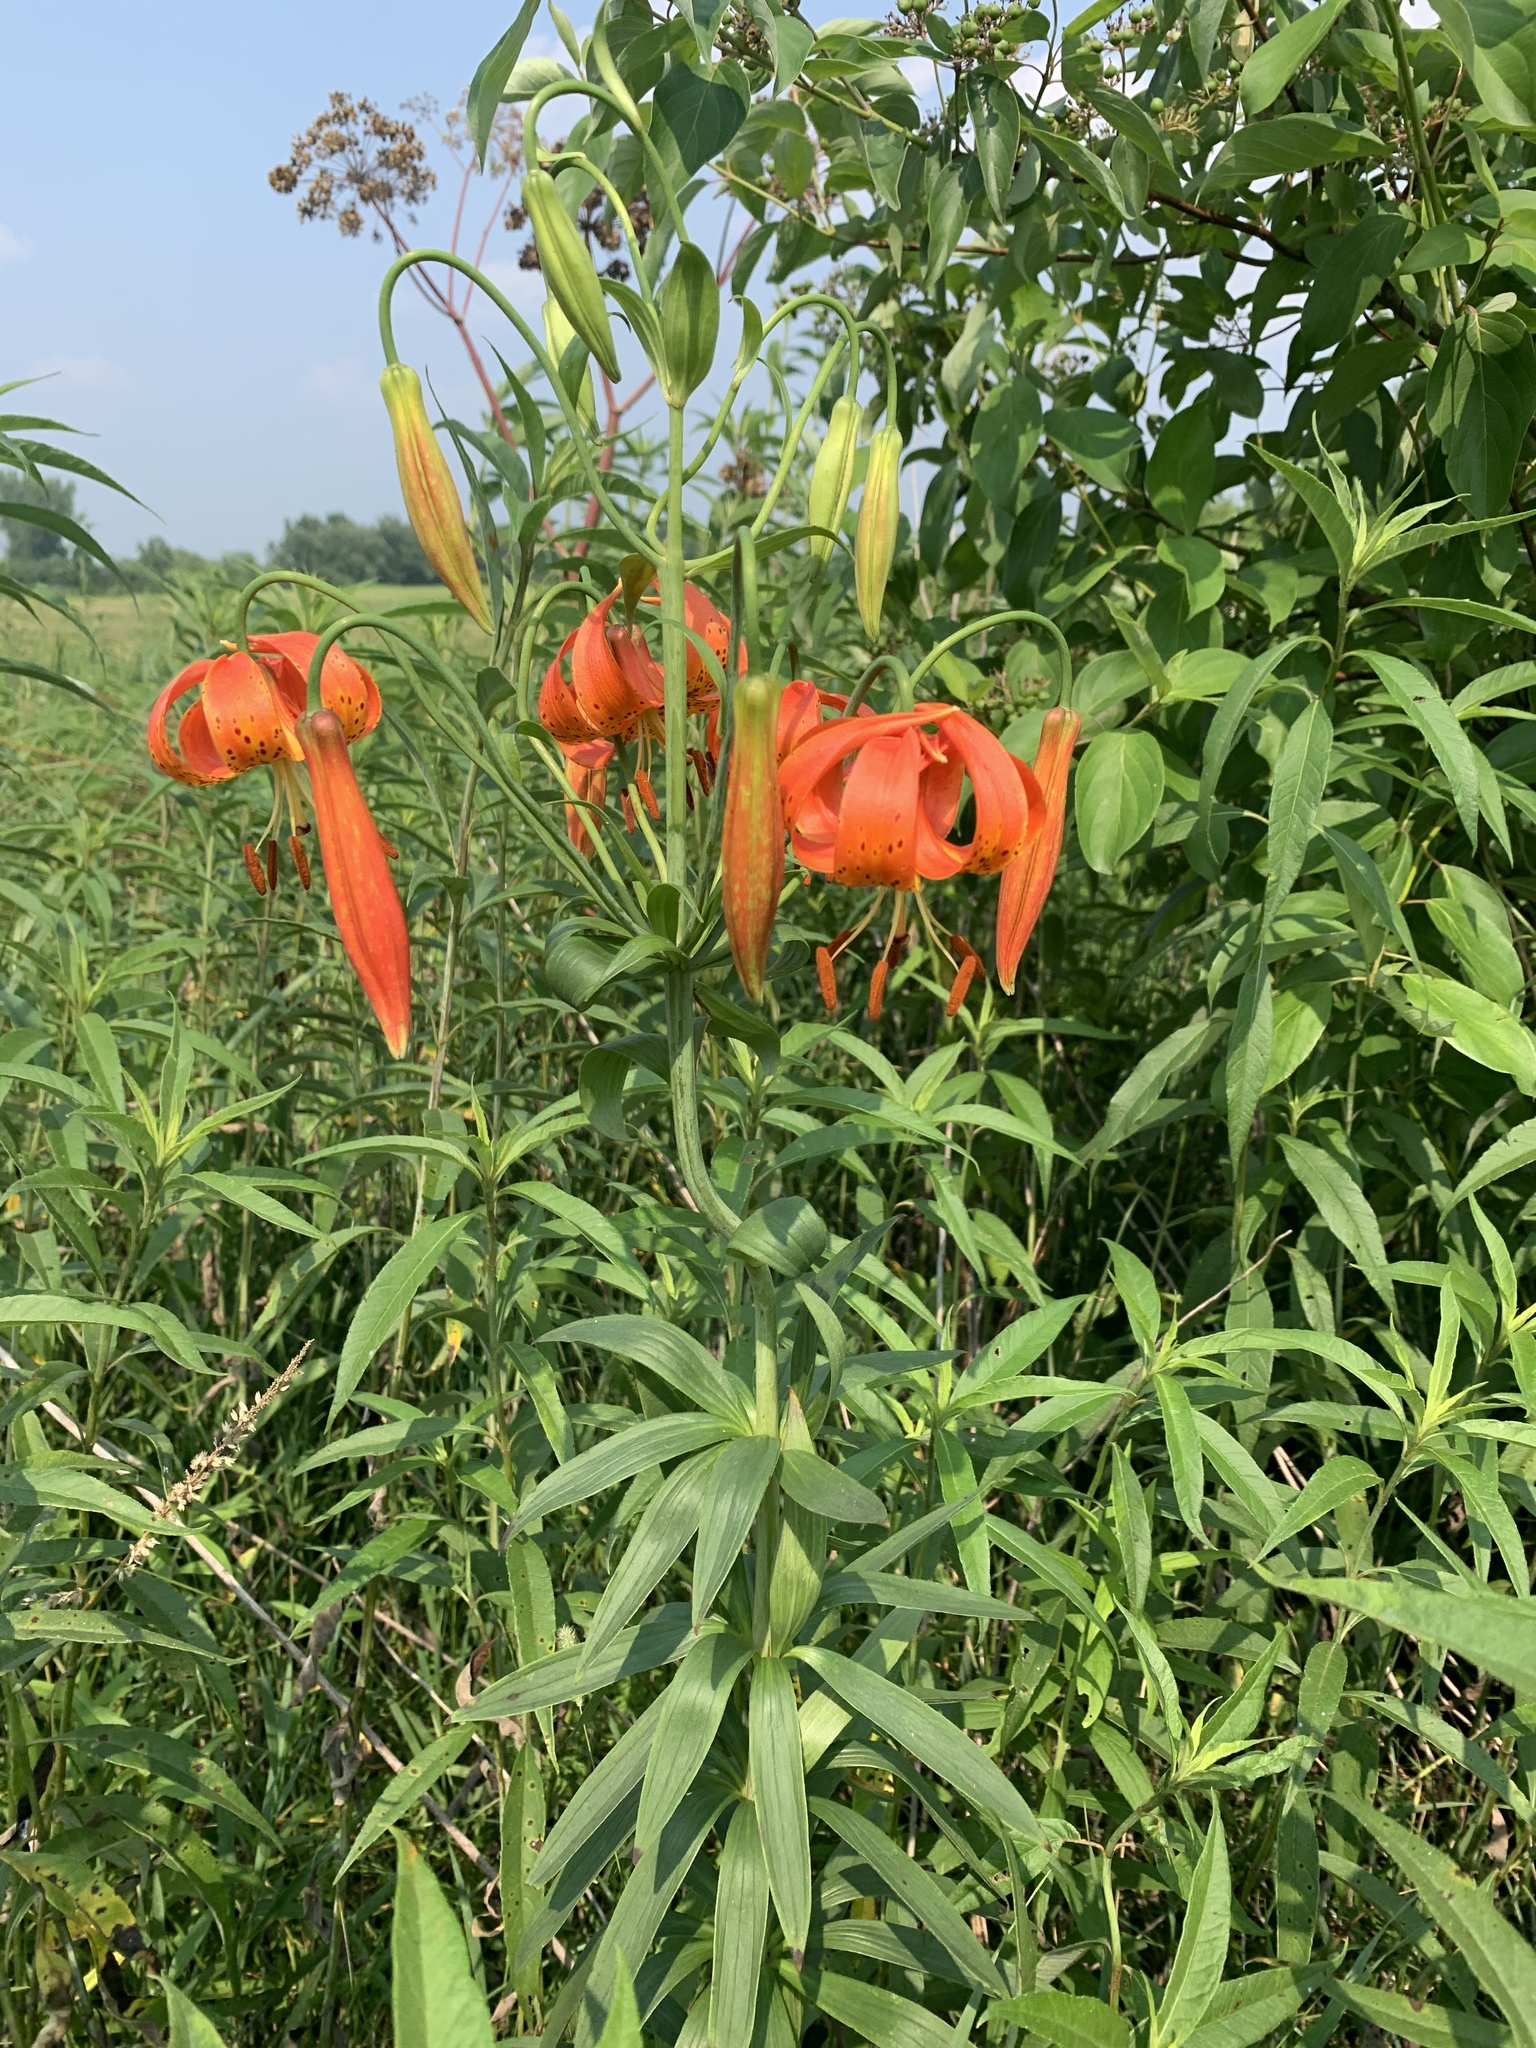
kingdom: Plantae
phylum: Tracheophyta
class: Liliopsida
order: Liliales
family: Liliaceae
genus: Lilium
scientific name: Lilium michiganense
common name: Michigan lily
